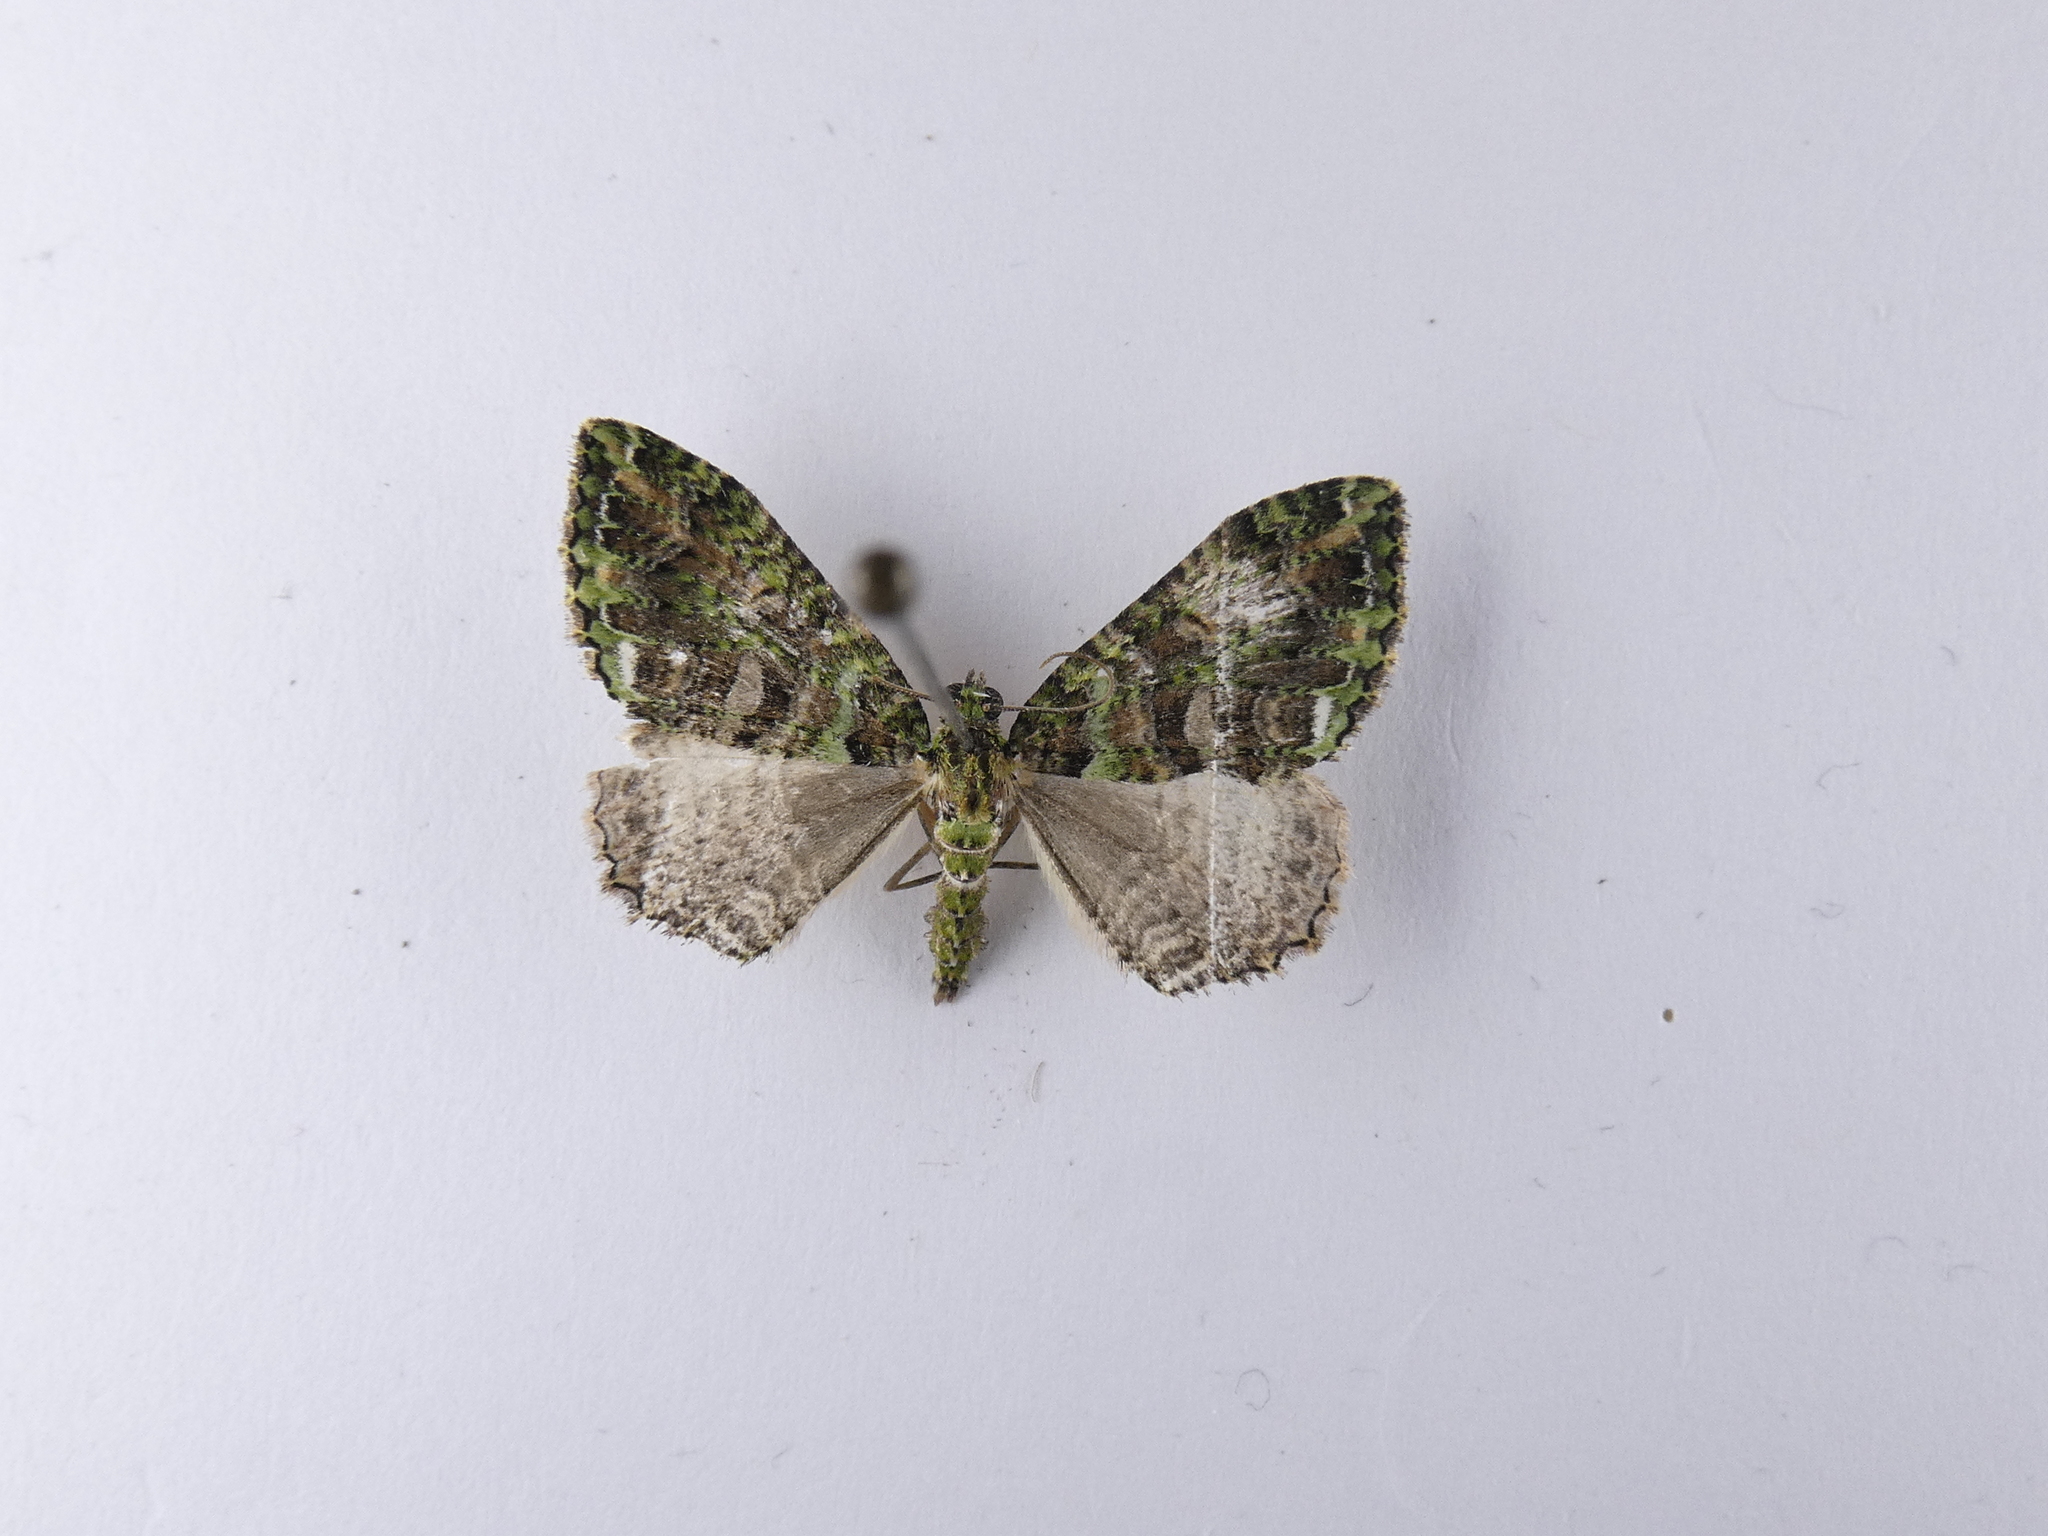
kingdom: Animalia
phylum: Arthropoda
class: Insecta
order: Lepidoptera
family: Geometridae
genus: Austrocidaria
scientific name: Austrocidaria similata
